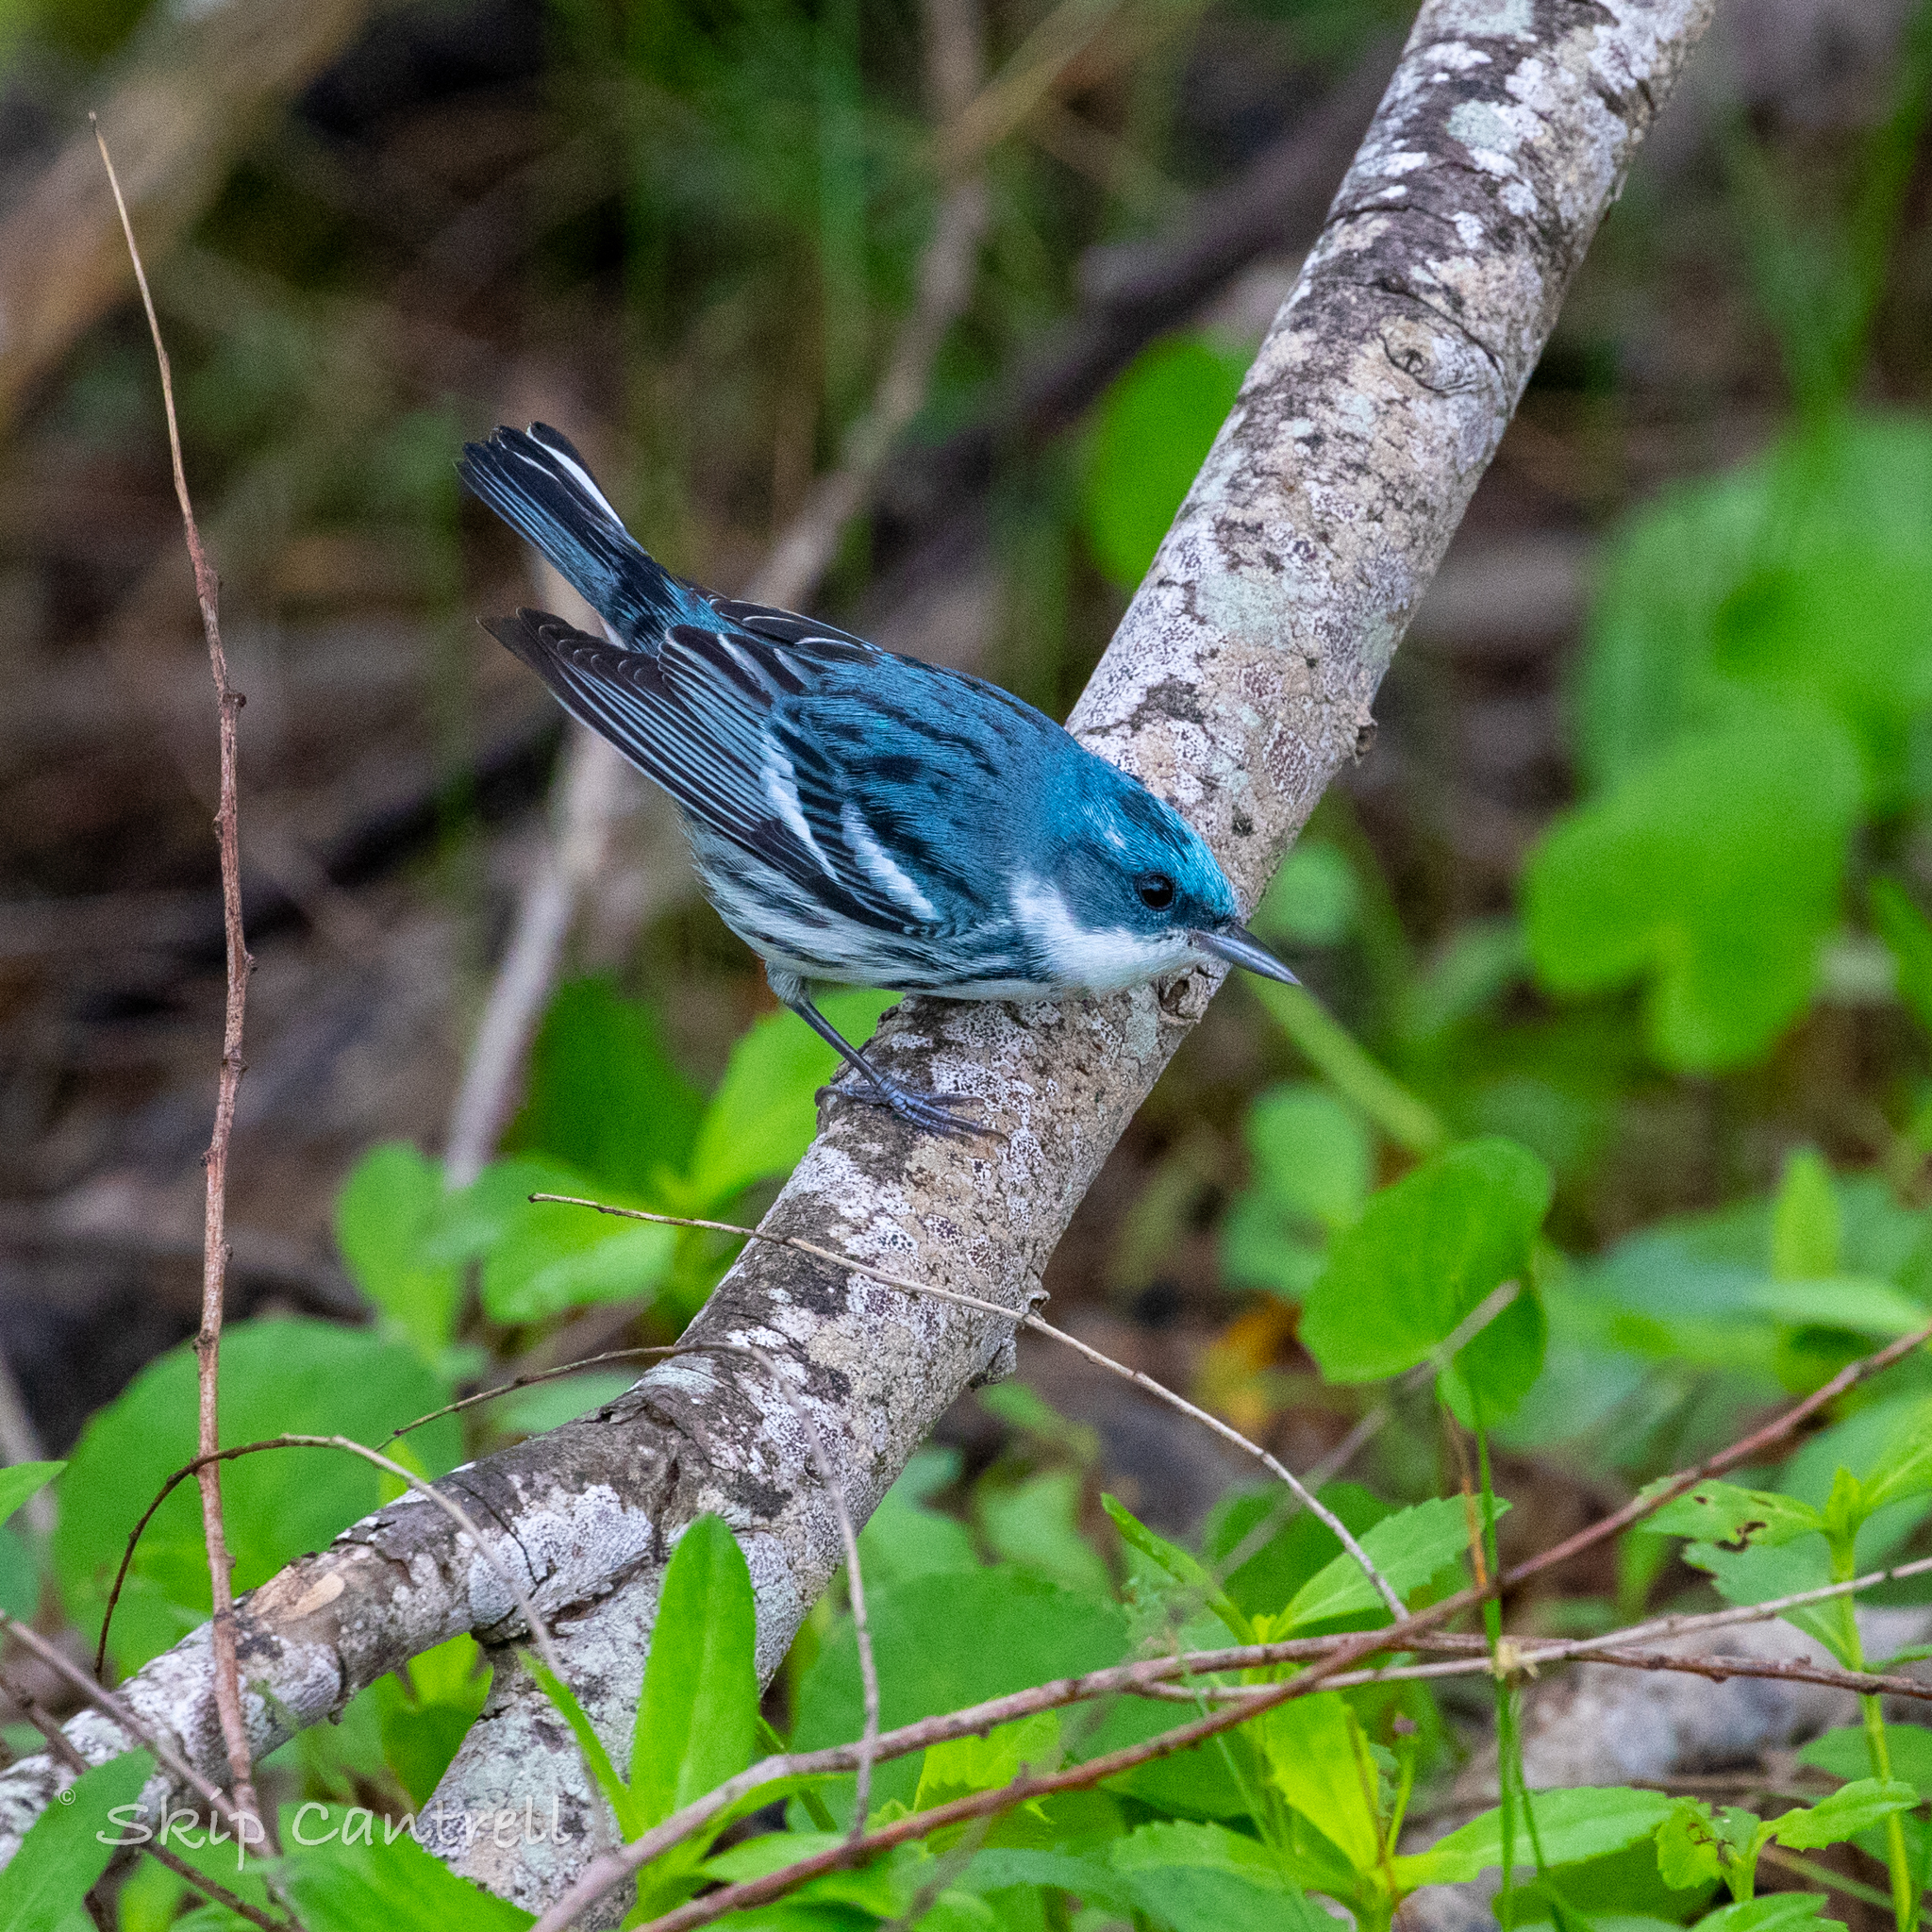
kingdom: Animalia
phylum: Chordata
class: Aves
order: Passeriformes
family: Parulidae
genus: Setophaga
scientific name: Setophaga cerulea
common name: Cerulean warbler
